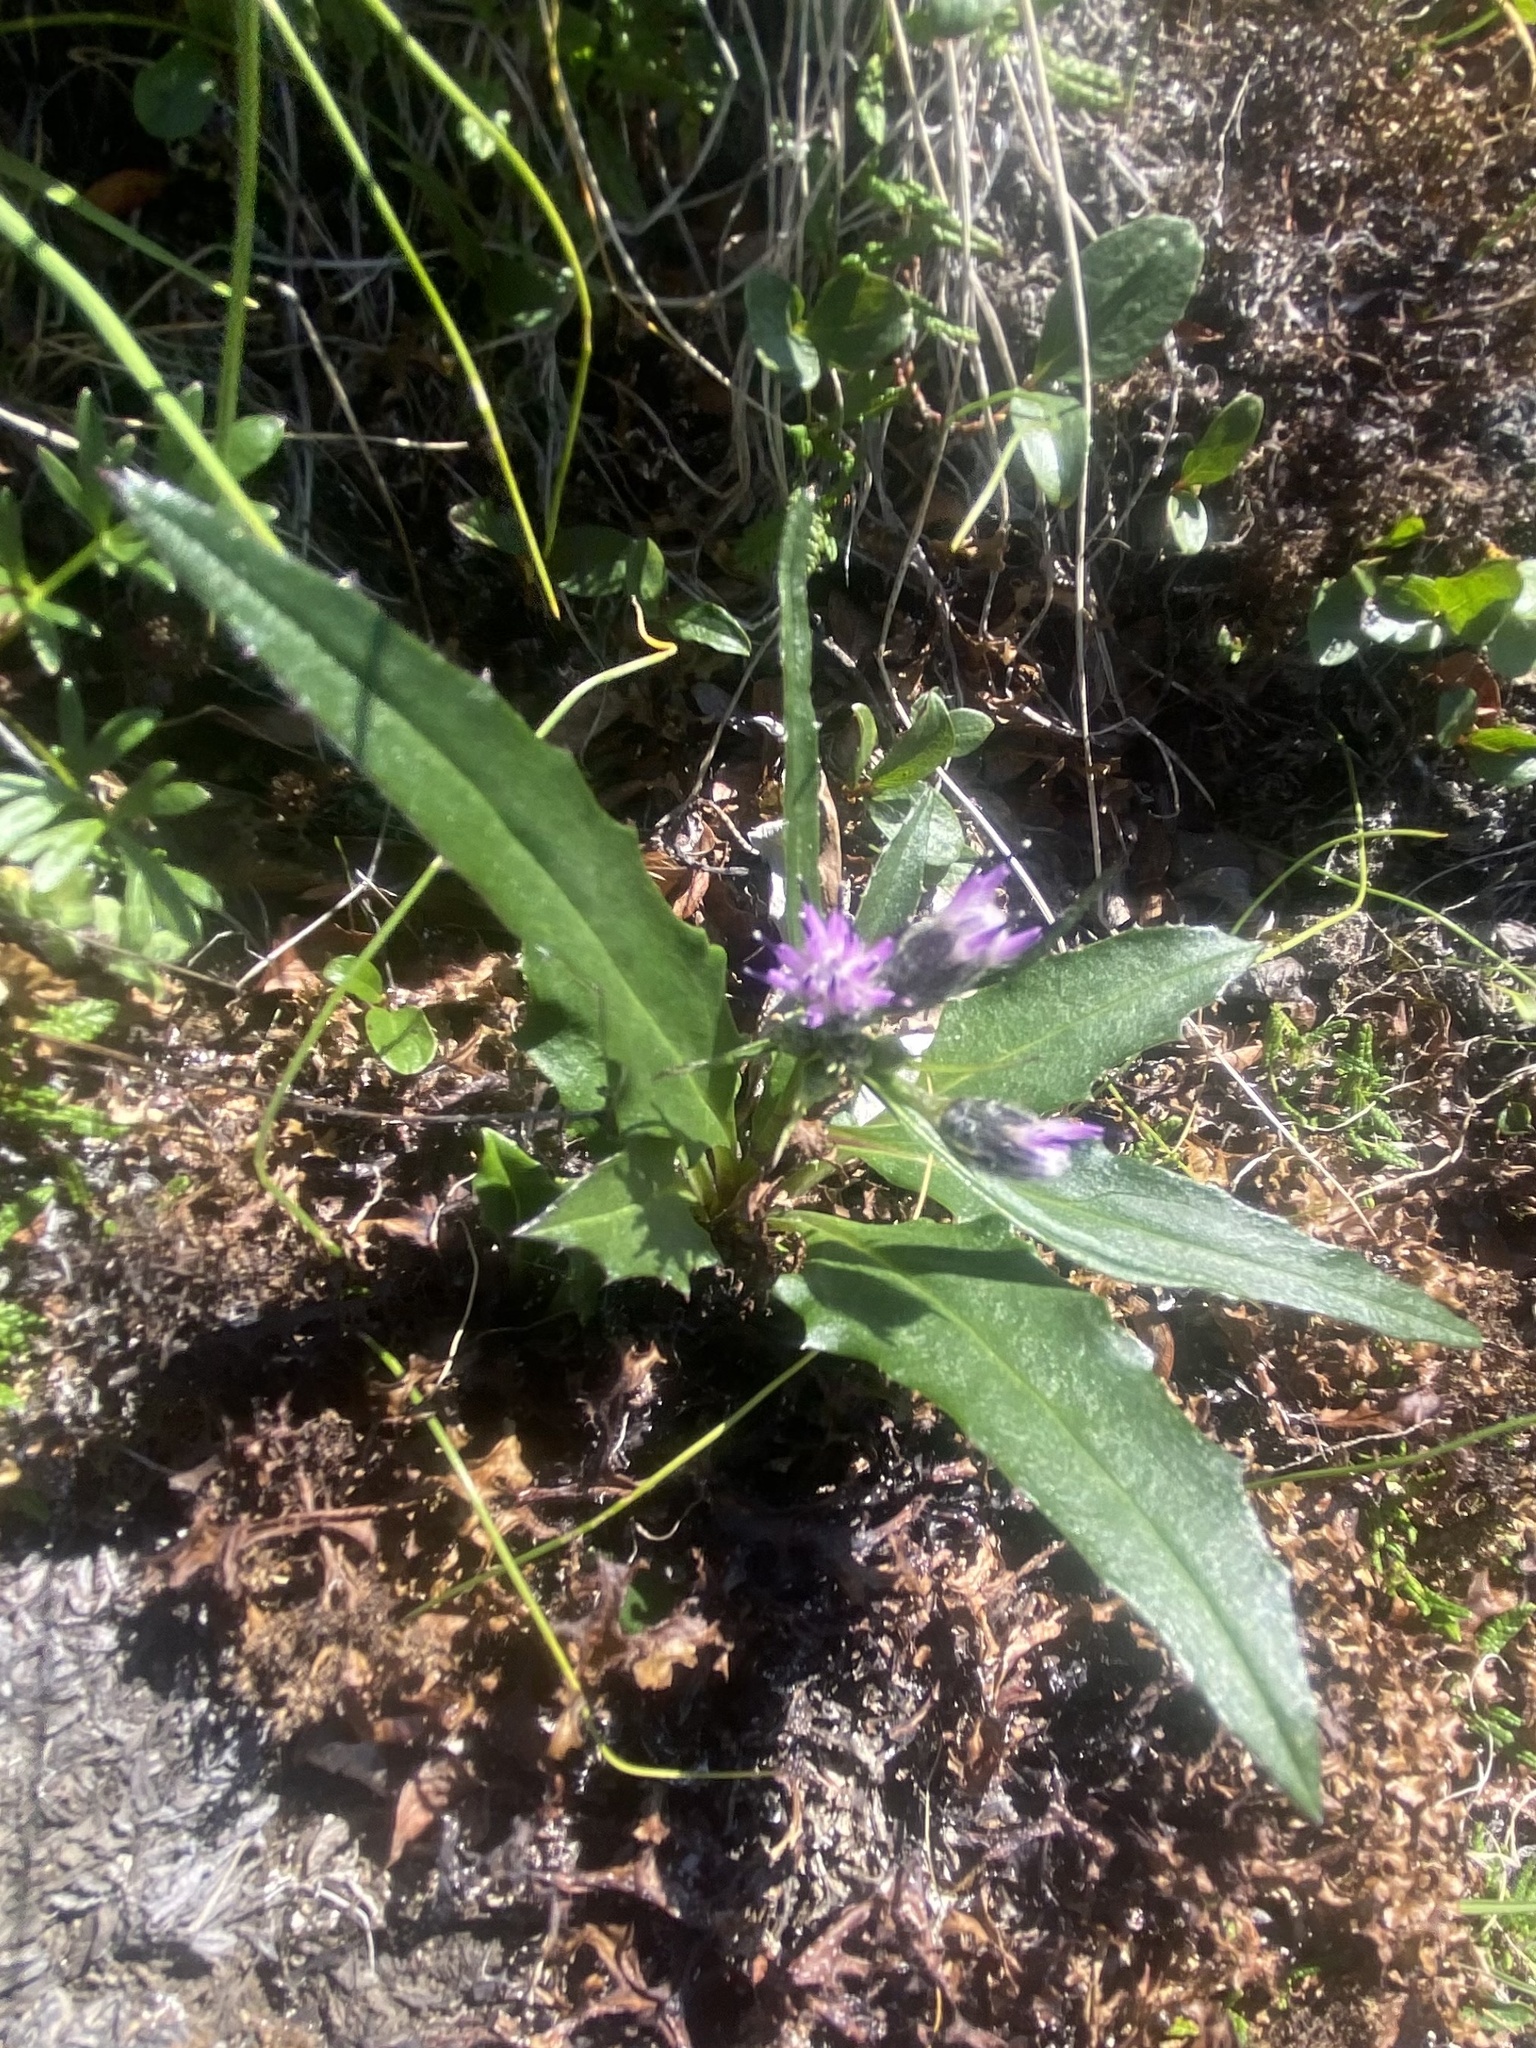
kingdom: Plantae
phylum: Tracheophyta
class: Magnoliopsida
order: Asterales
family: Asteraceae
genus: Saussurea
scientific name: Saussurea tilesii
